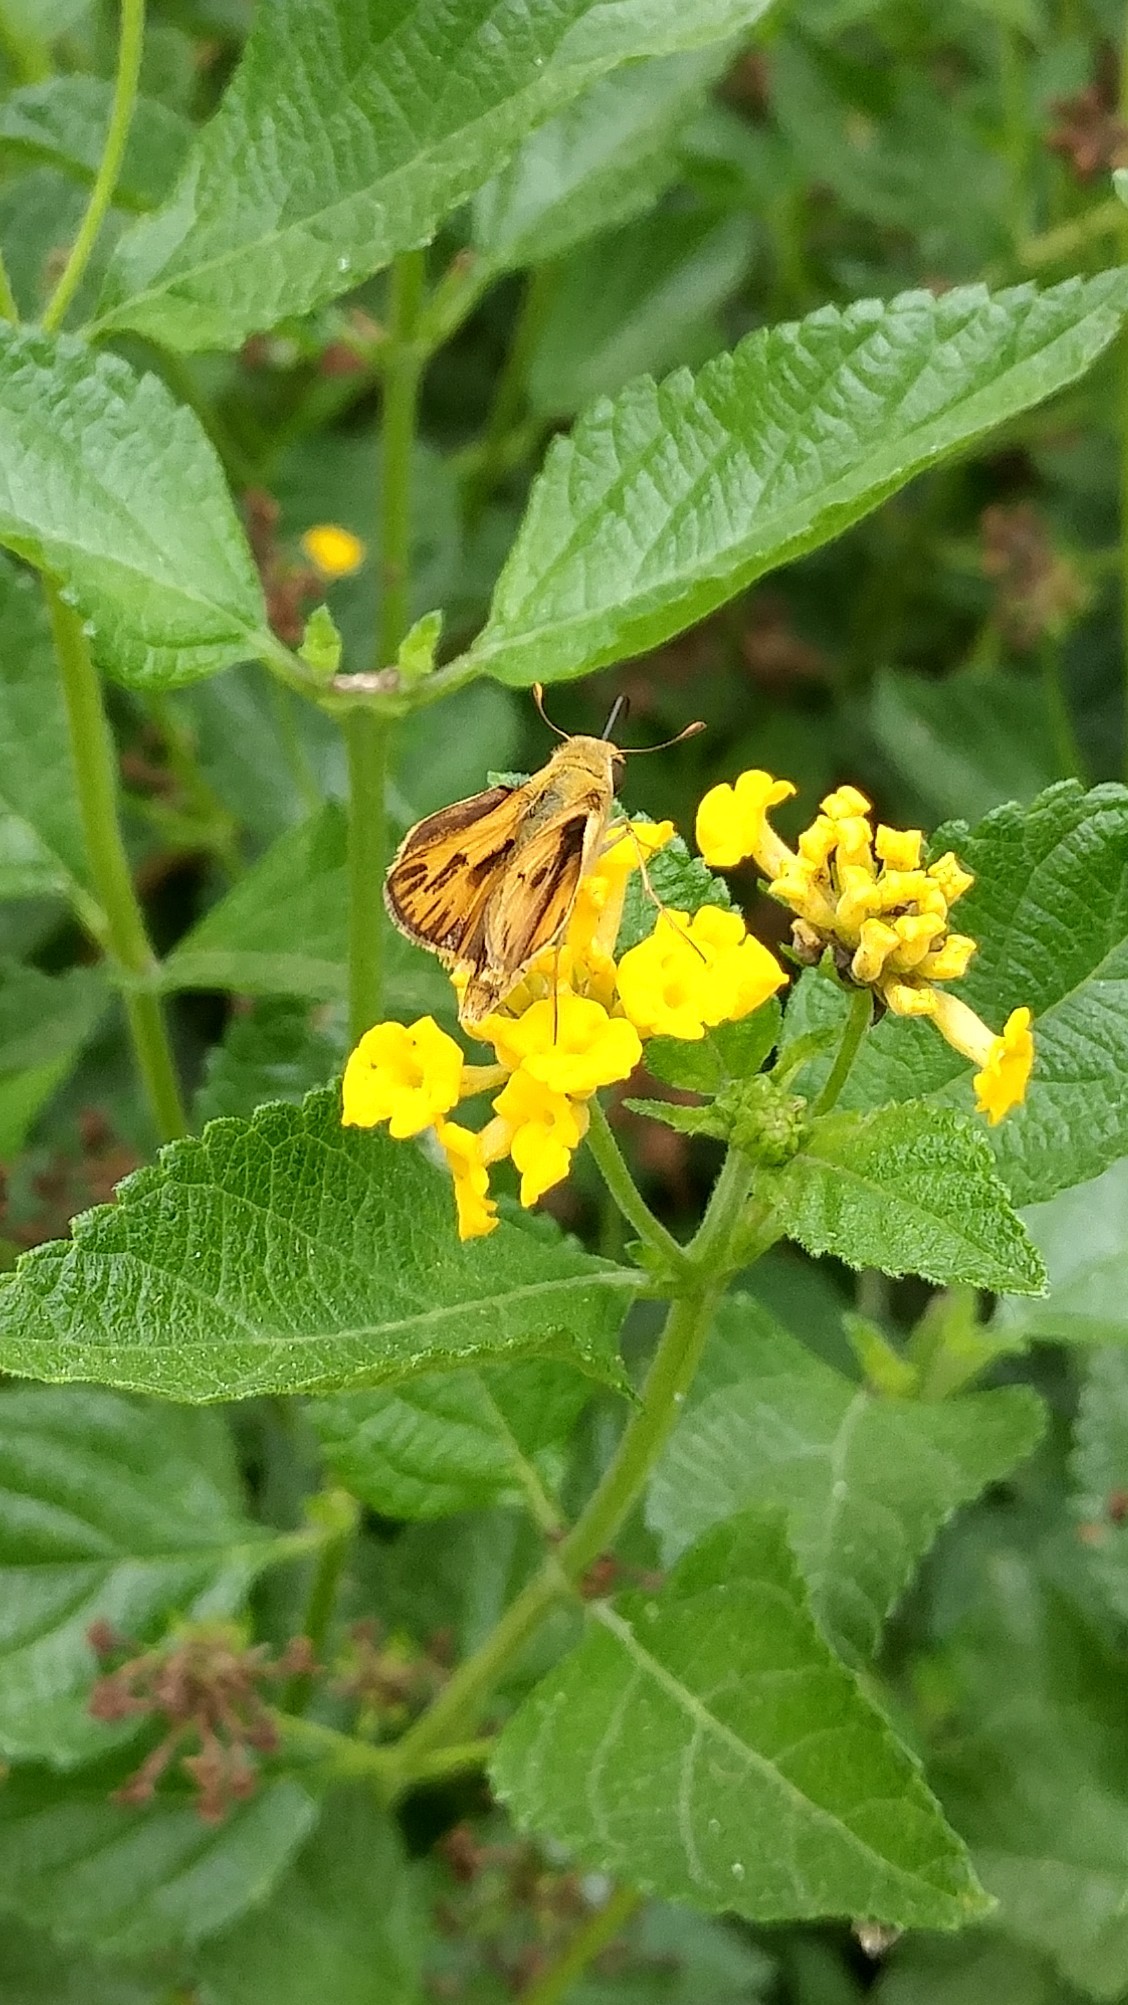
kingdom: Animalia
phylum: Arthropoda
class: Insecta
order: Lepidoptera
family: Hesperiidae
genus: Hylephila
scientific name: Hylephila phyleus
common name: Fiery skipper
